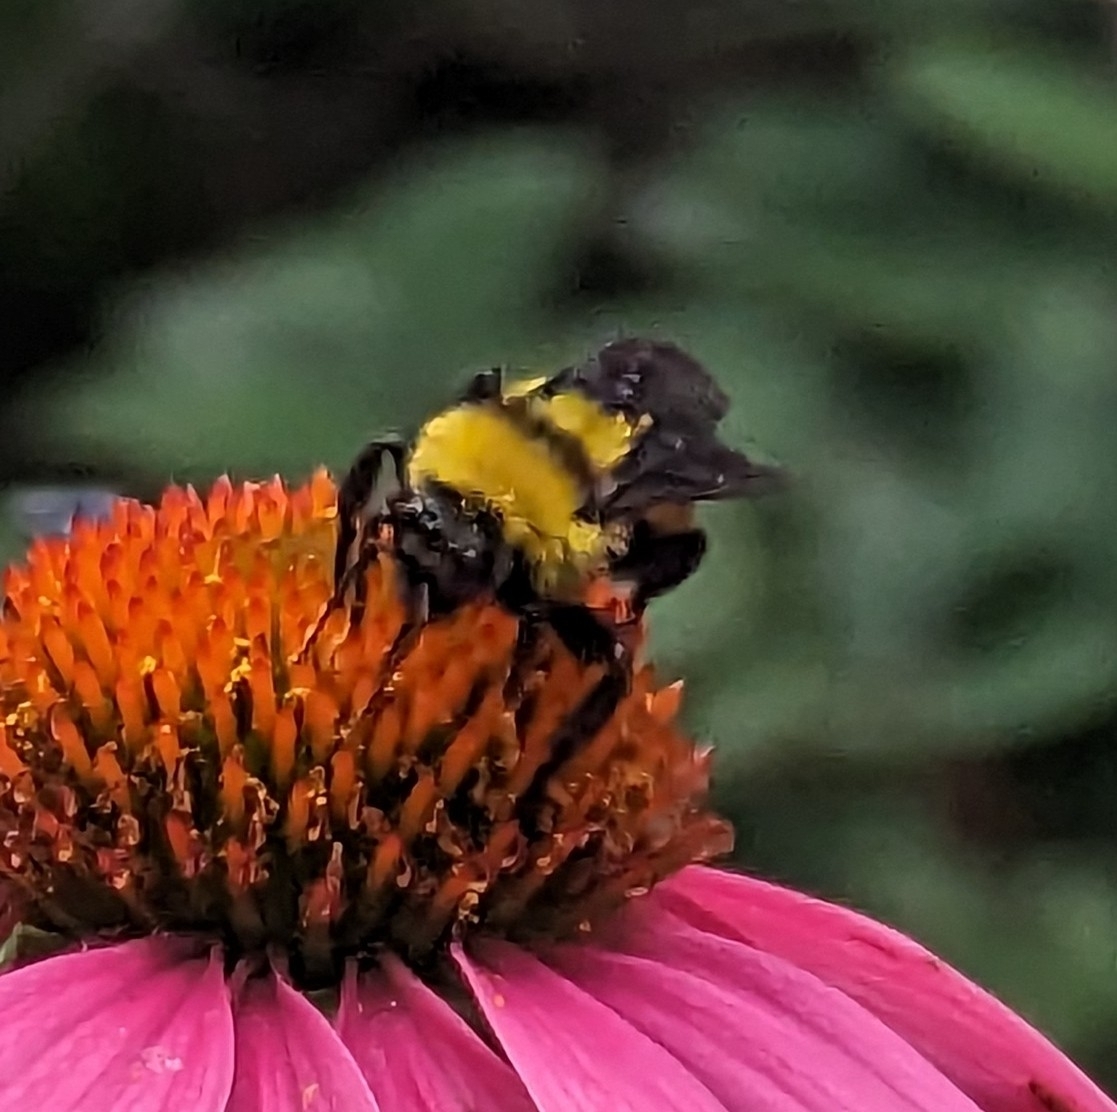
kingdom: Animalia
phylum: Arthropoda
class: Insecta
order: Hymenoptera
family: Apidae
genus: Bombus
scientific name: Bombus sonorus
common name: Sonoran bumble bee
